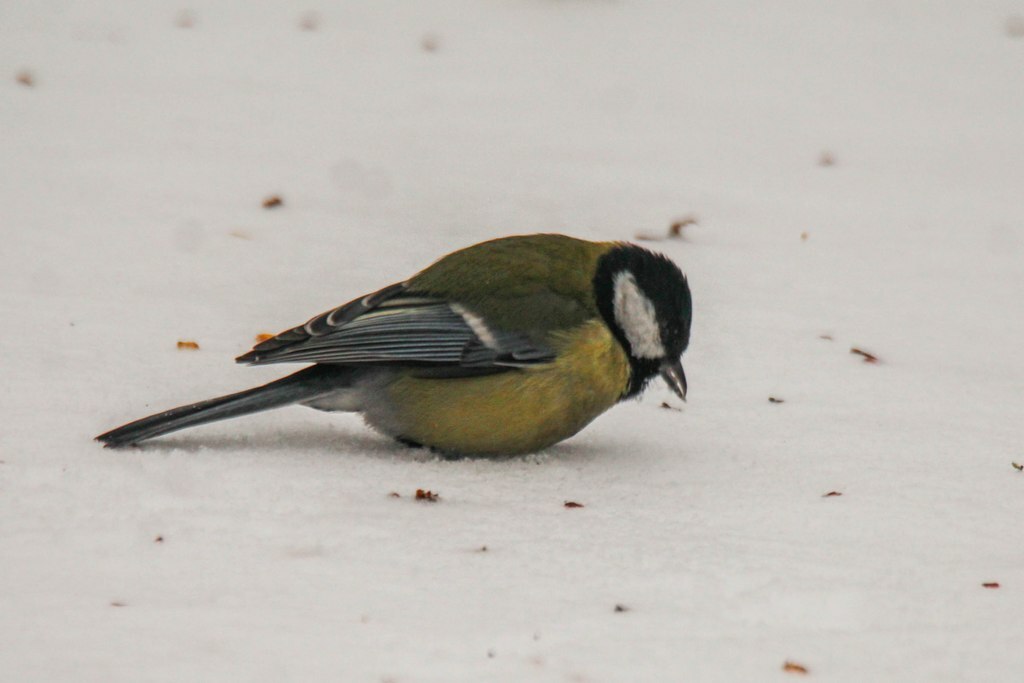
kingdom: Animalia
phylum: Chordata
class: Aves
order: Passeriformes
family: Paridae
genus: Parus
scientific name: Parus major
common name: Great tit
